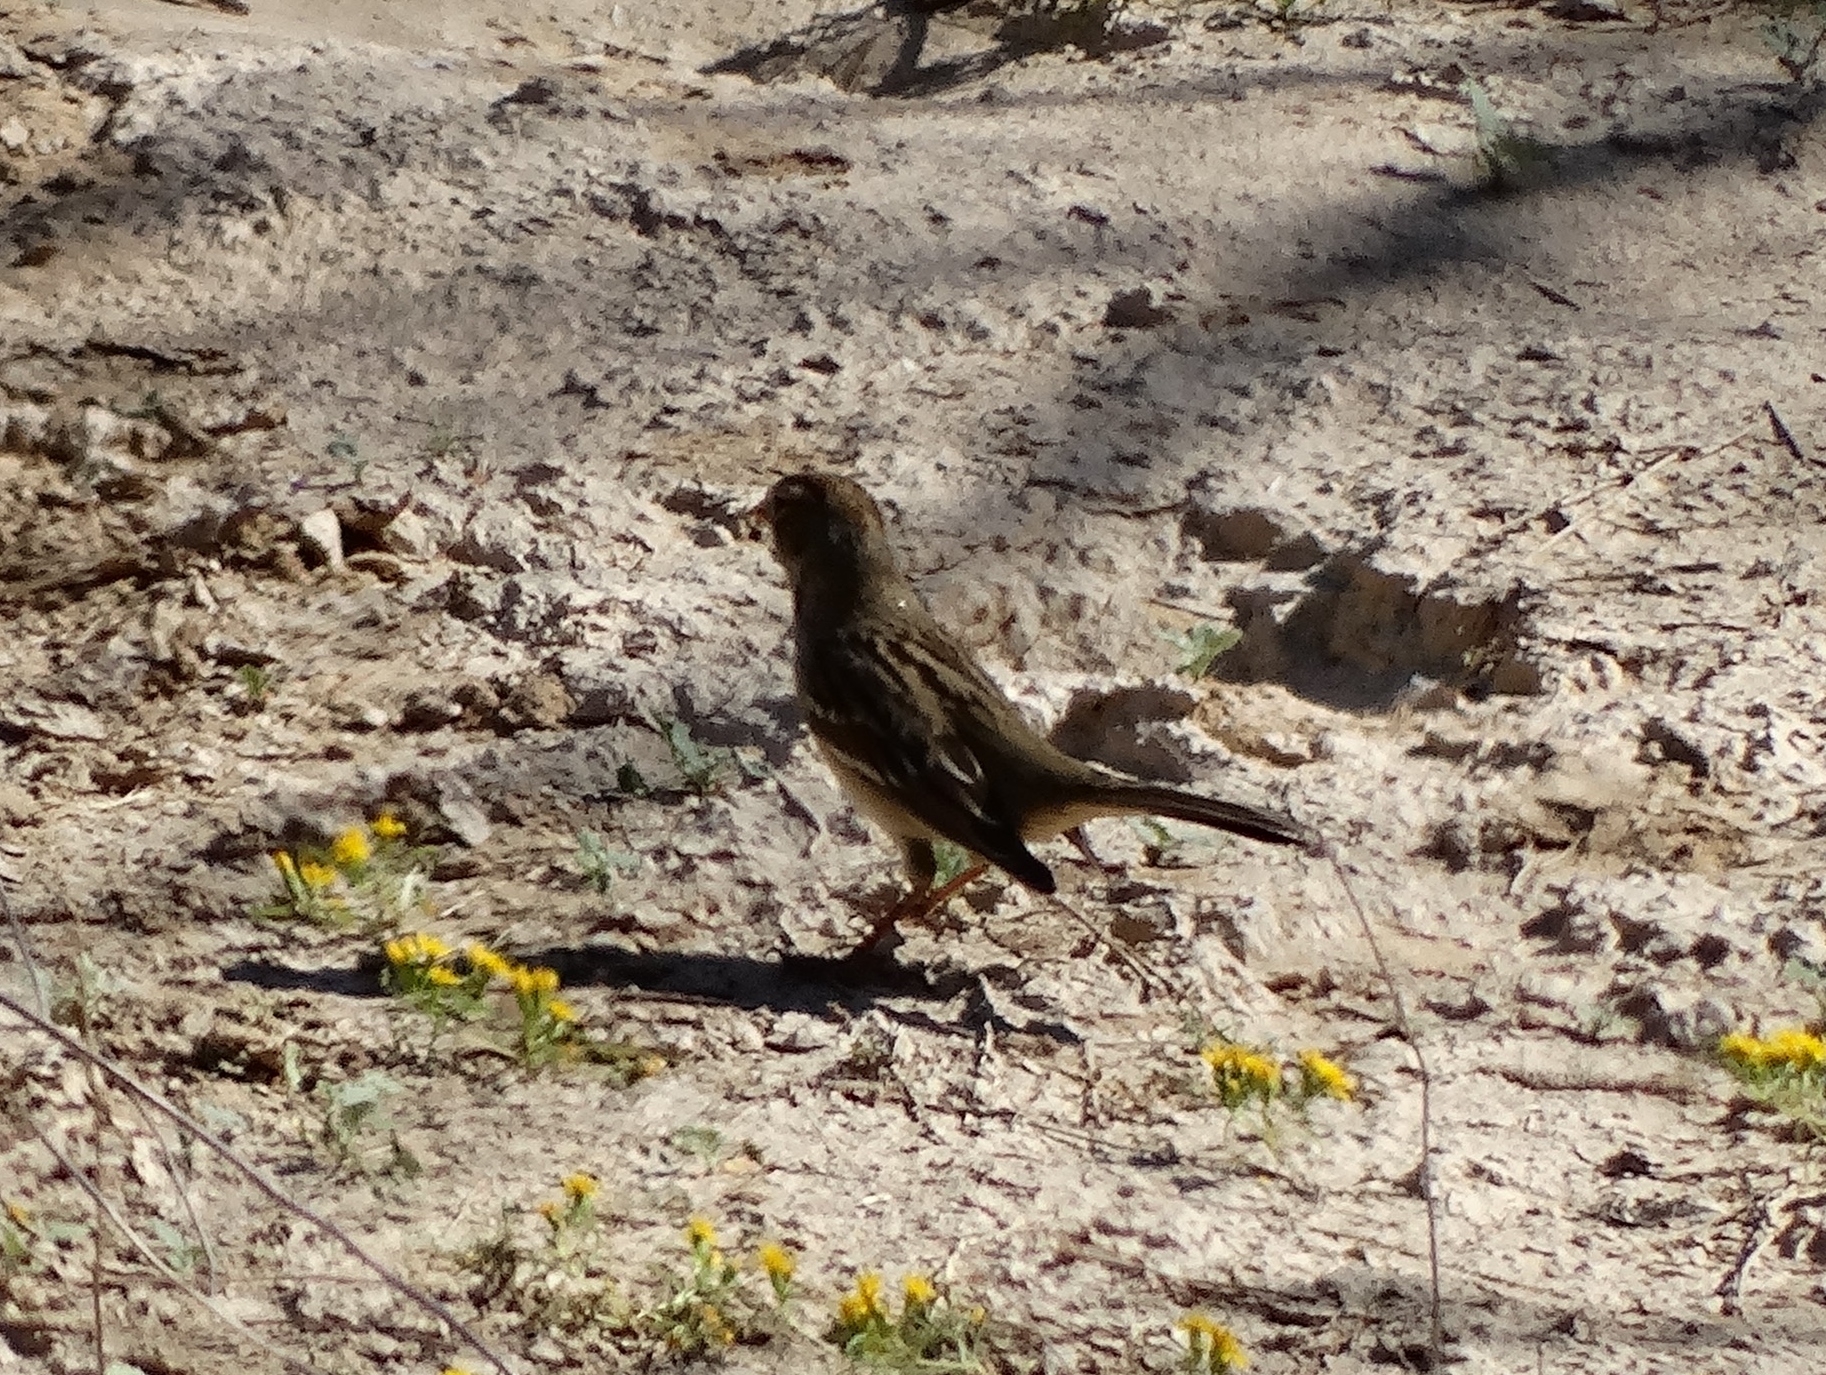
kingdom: Animalia
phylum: Chordata
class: Aves
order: Passeriformes
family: Passerellidae
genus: Zonotrichia
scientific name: Zonotrichia leucophrys
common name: White-crowned sparrow
